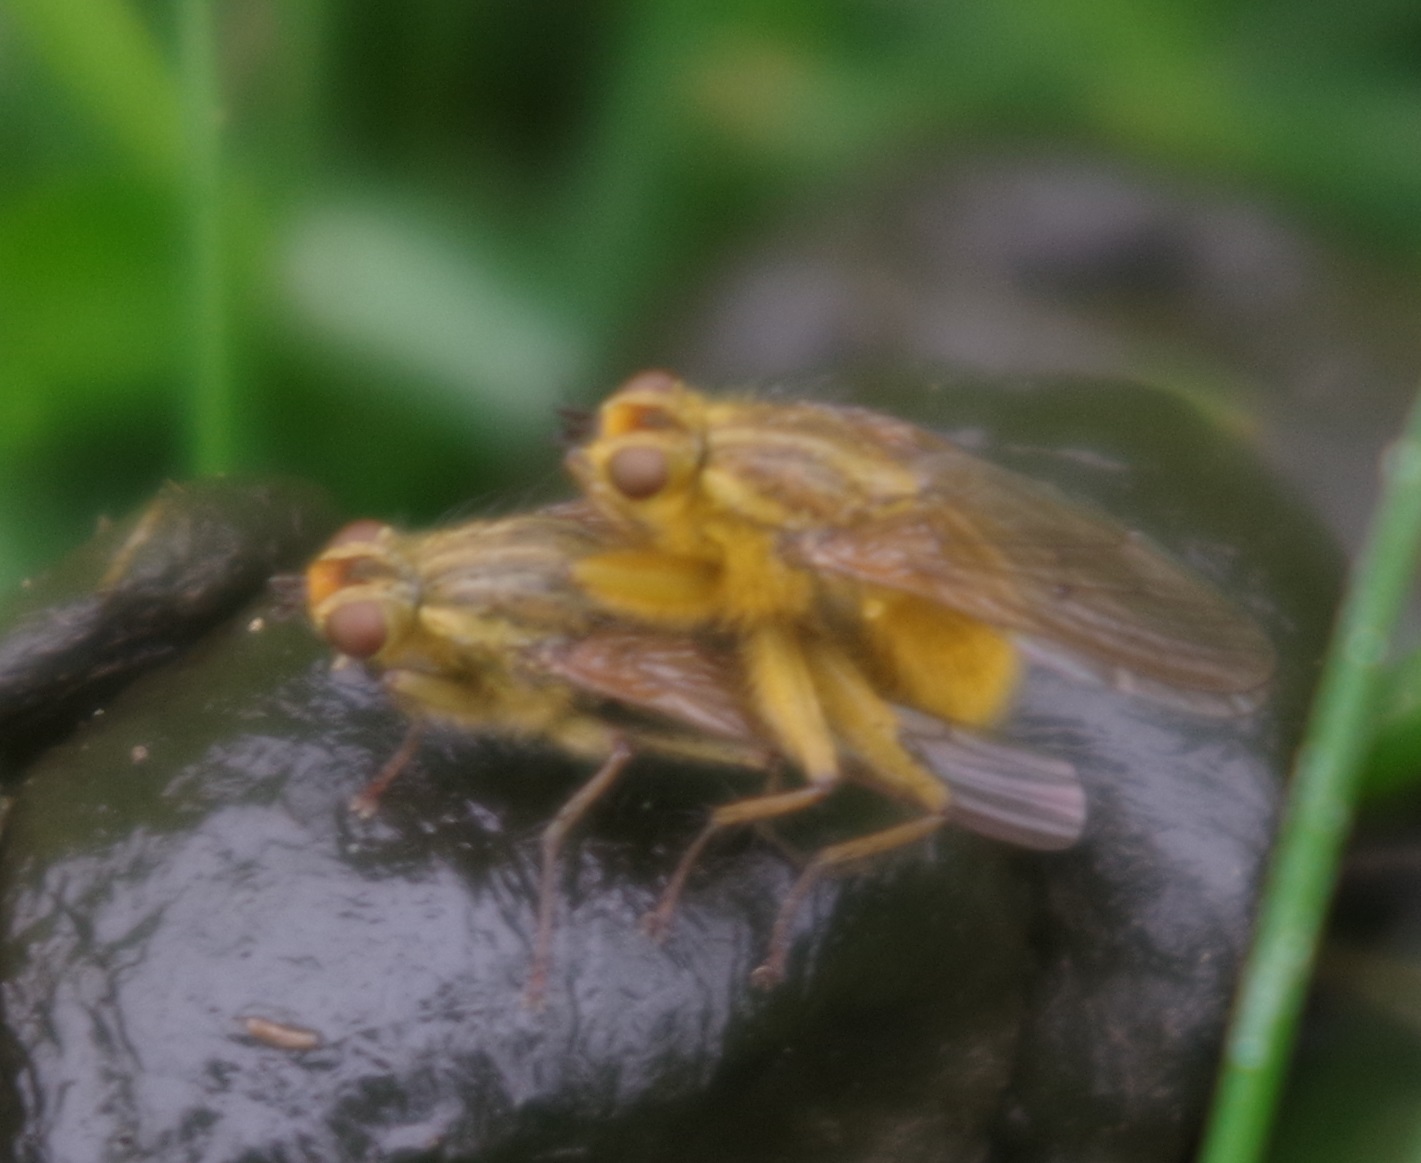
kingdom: Animalia
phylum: Arthropoda
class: Insecta
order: Diptera
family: Scathophagidae
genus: Scathophaga
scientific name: Scathophaga stercoraria
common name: Yellow dung fly
